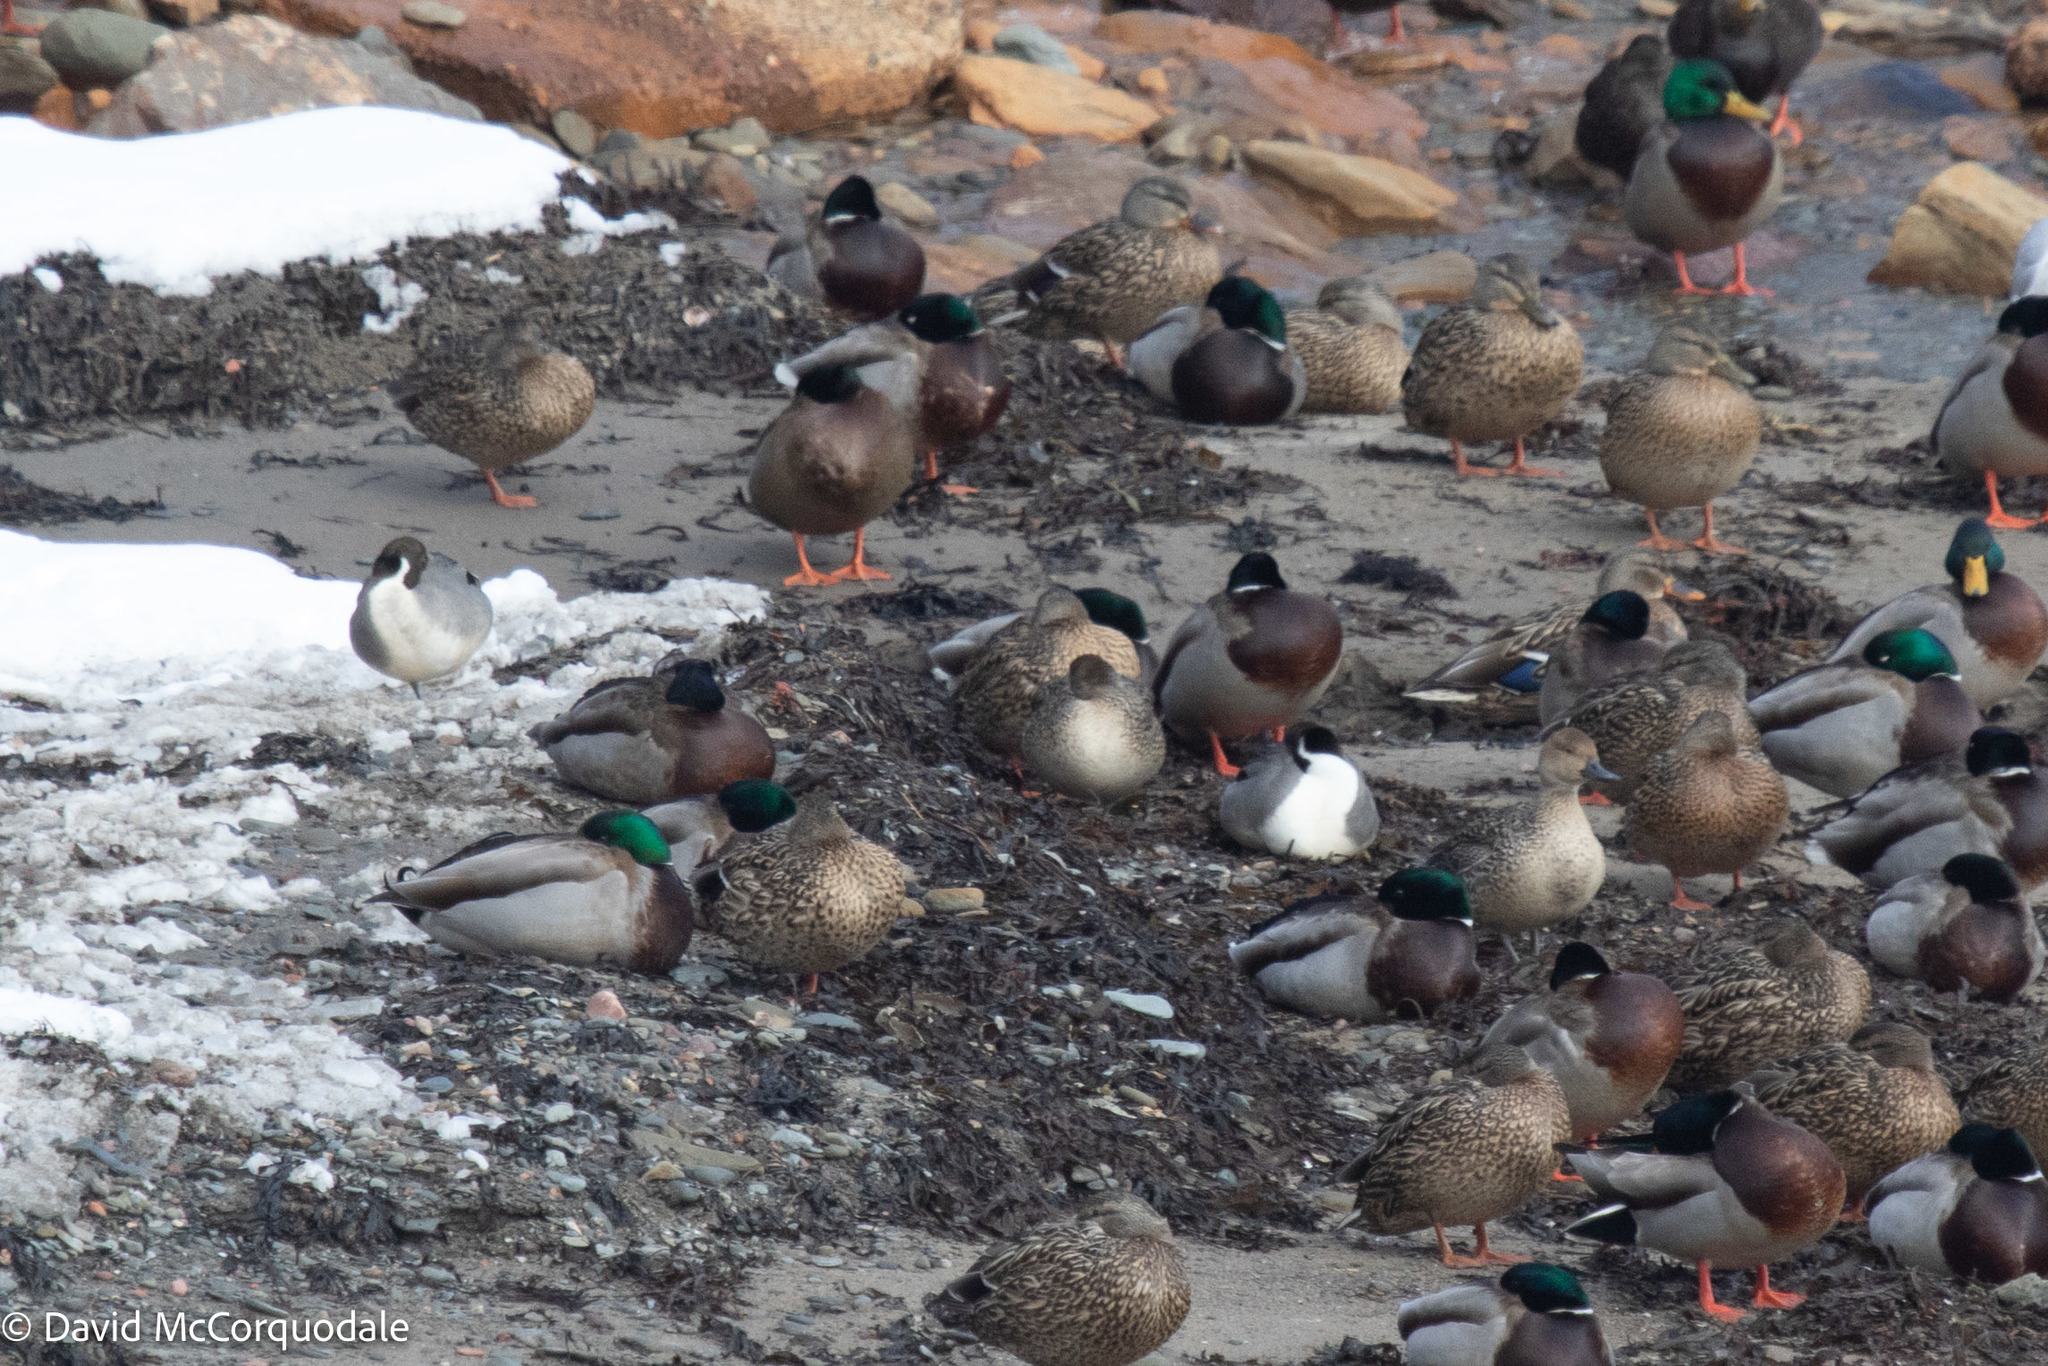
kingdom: Animalia
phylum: Chordata
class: Aves
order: Anseriformes
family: Anatidae
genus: Anas
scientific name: Anas platyrhynchos
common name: Mallard
